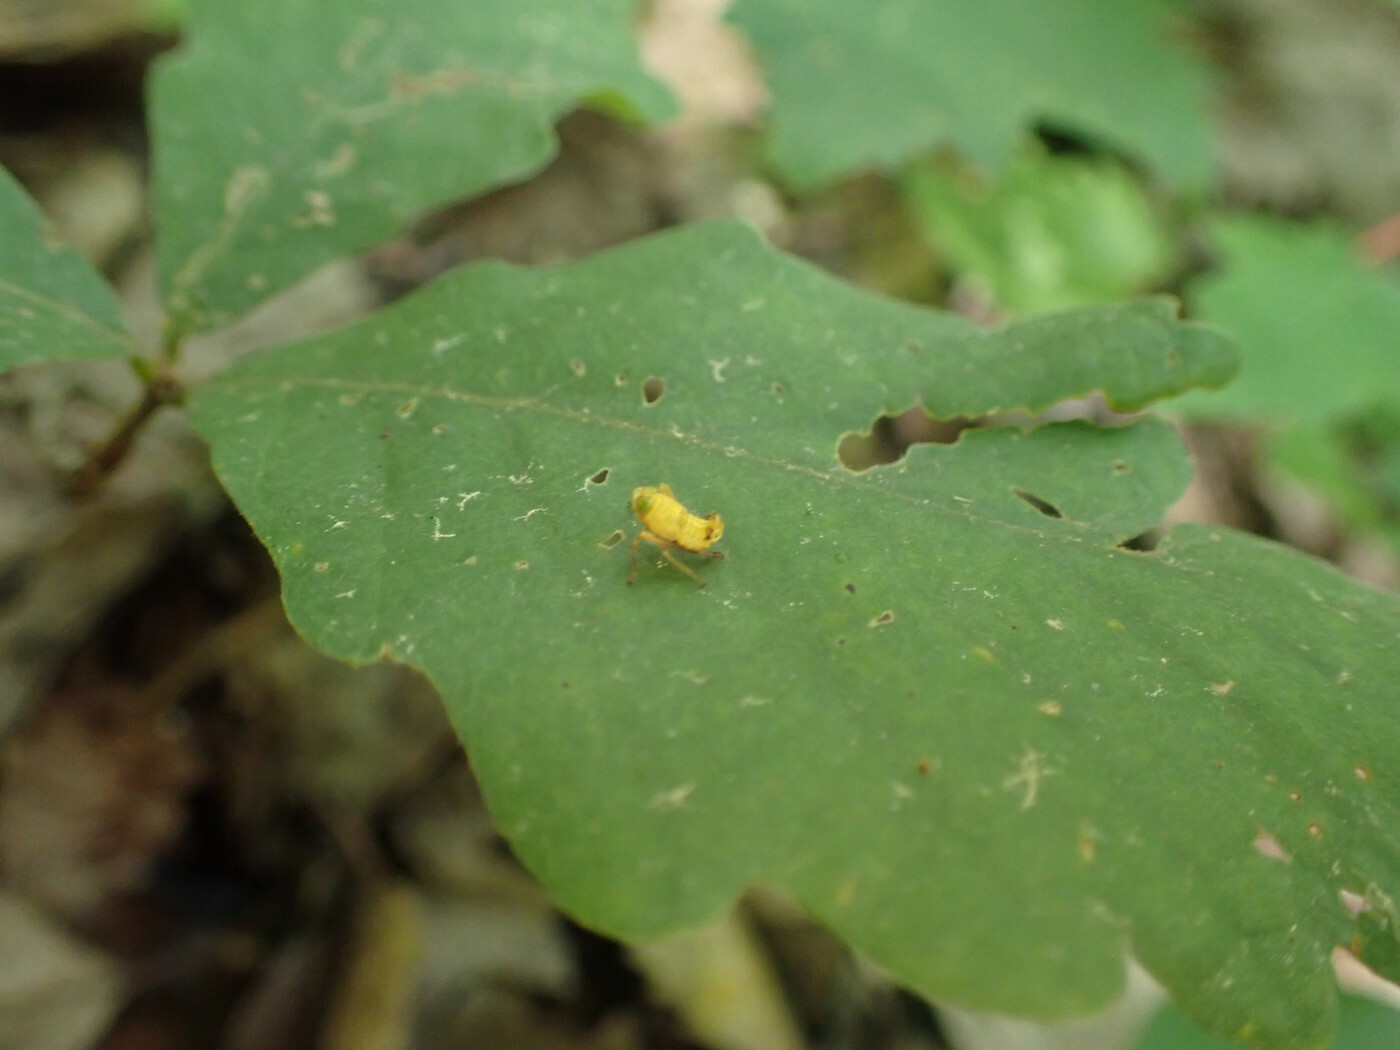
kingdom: Animalia
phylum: Arthropoda
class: Insecta
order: Hemiptera
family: Cicadellidae
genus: Jikradia
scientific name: Jikradia olitoria
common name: Coppery leafhopper
